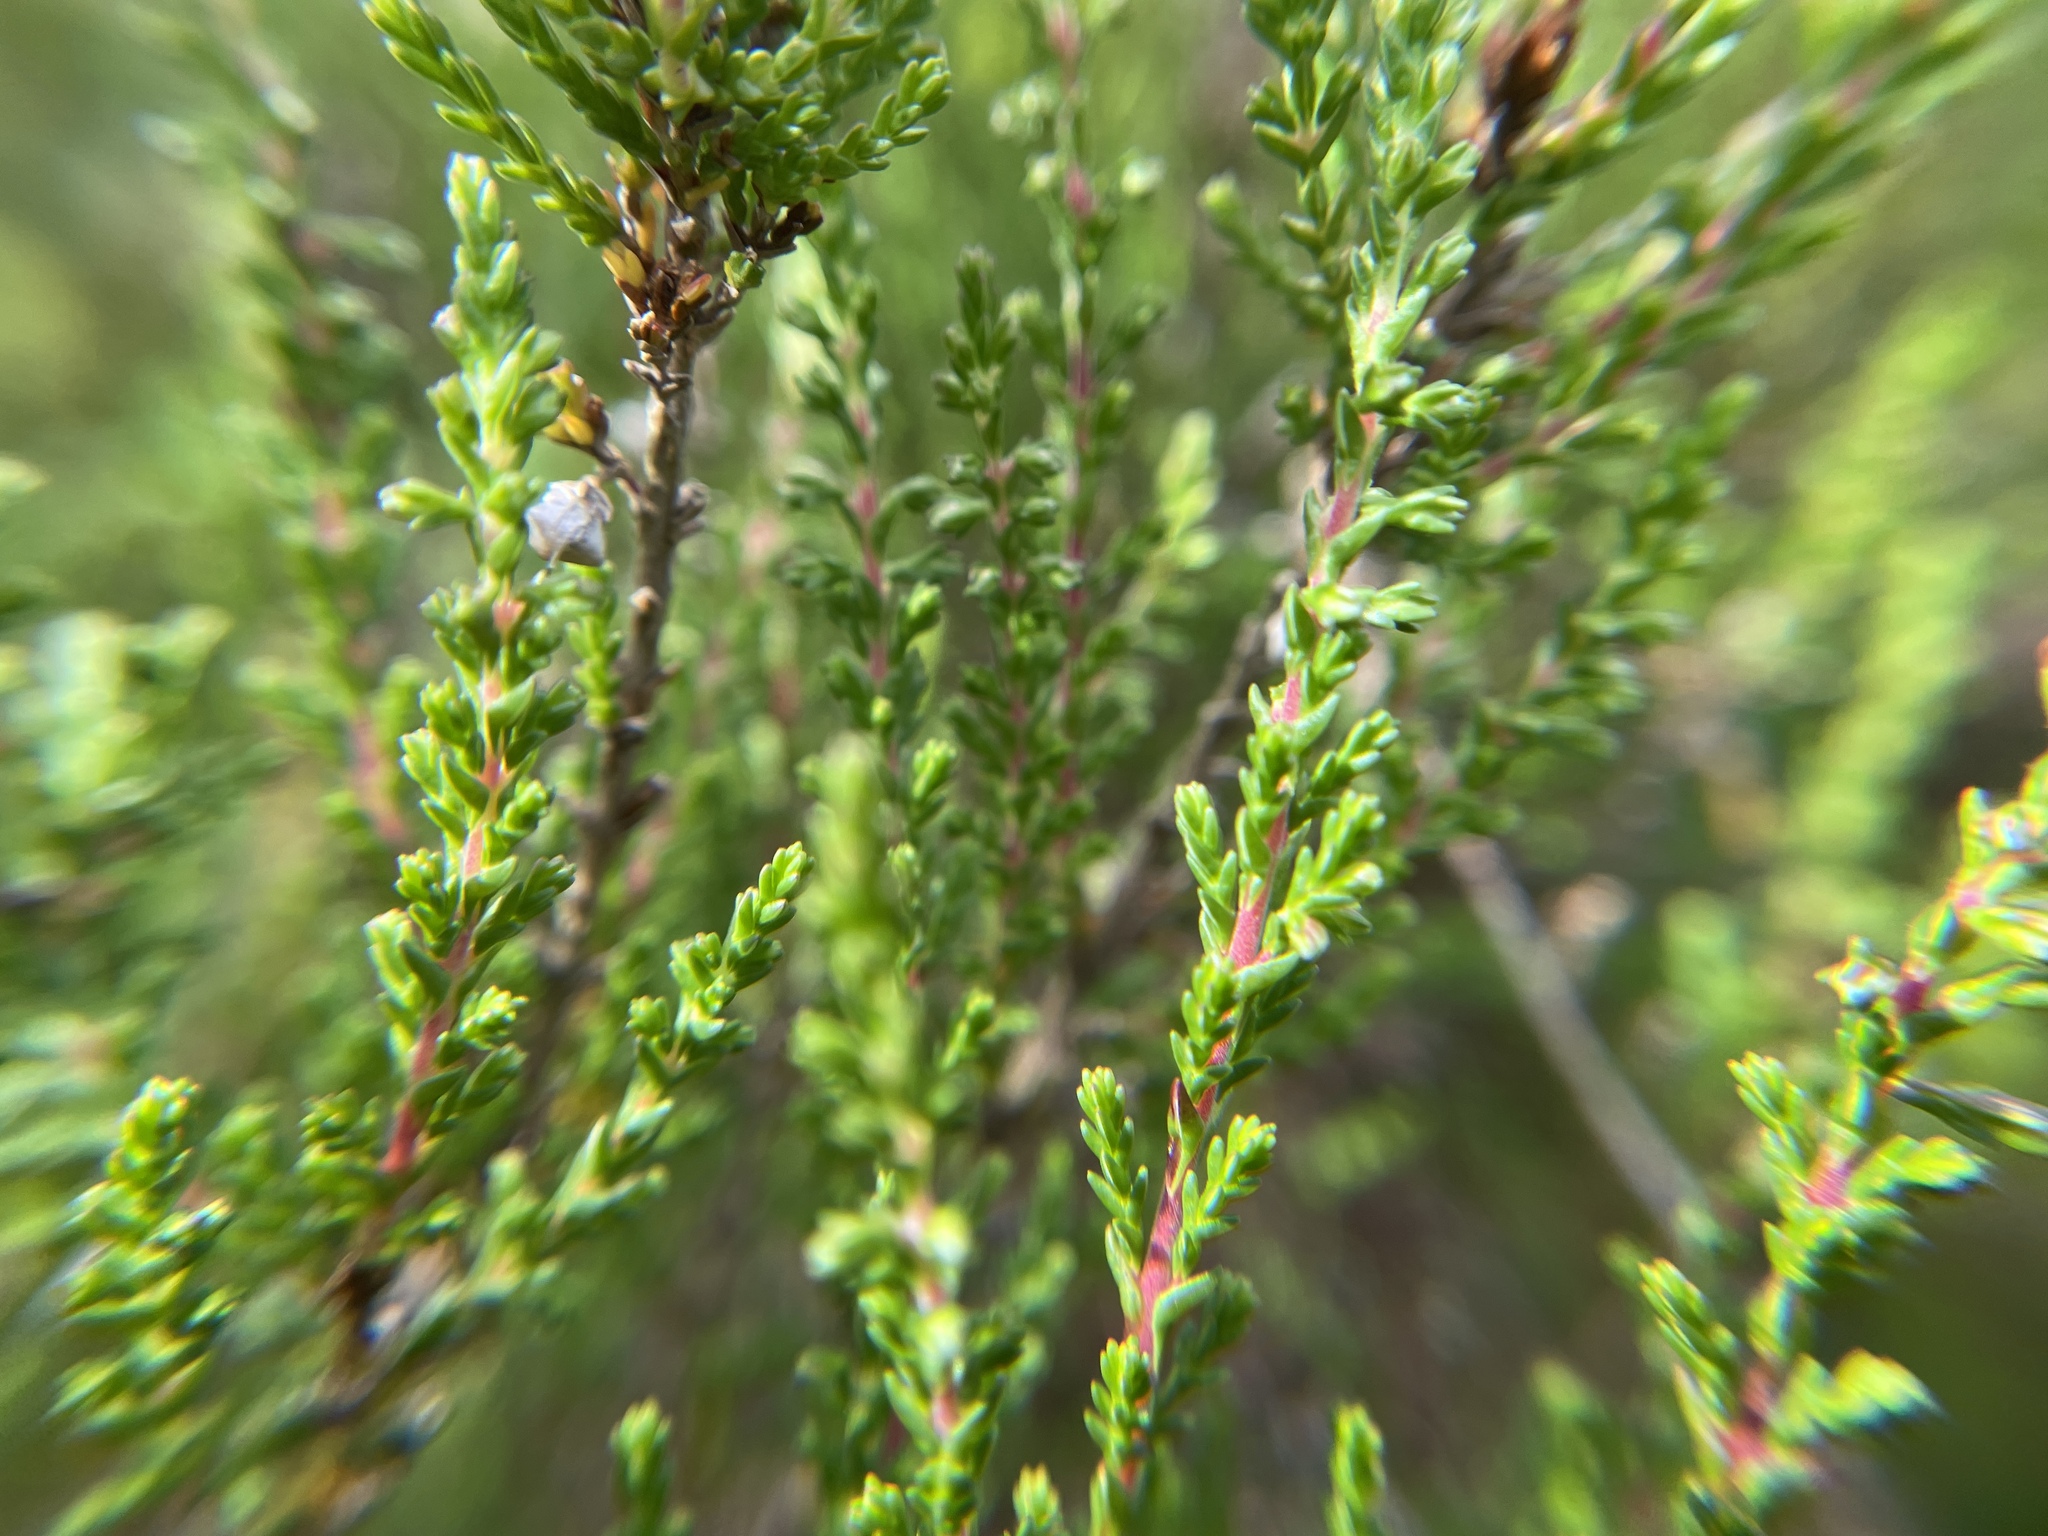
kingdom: Plantae
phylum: Tracheophyta
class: Magnoliopsida
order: Ericales
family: Ericaceae
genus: Calluna
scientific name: Calluna vulgaris
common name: Heather
